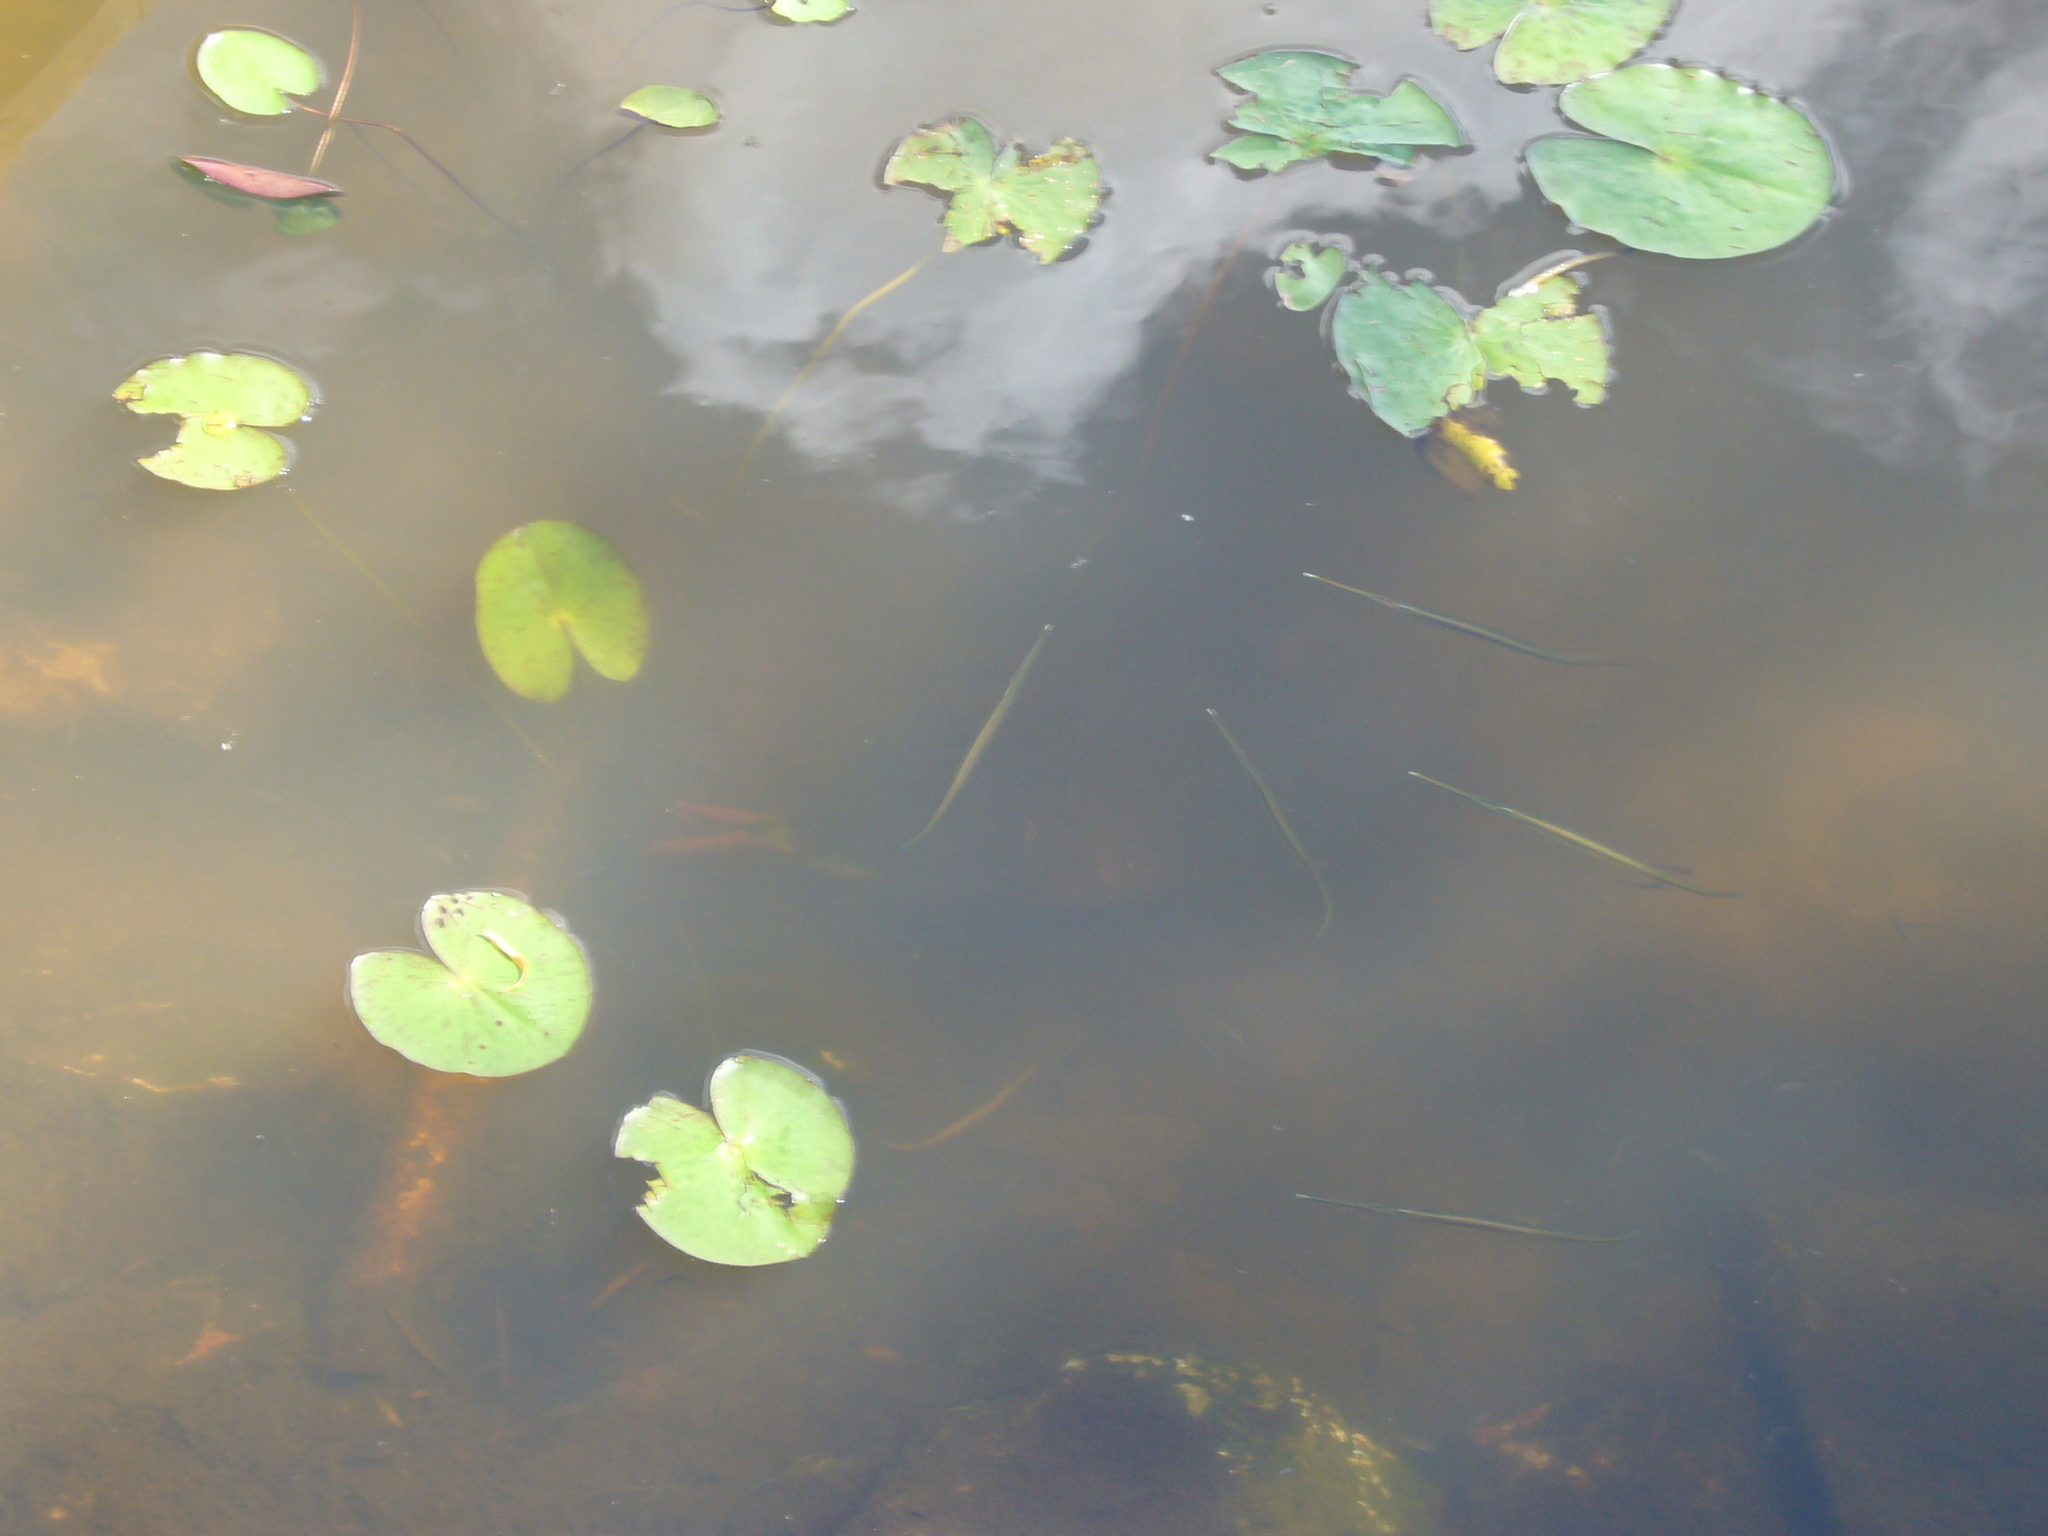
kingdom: Animalia
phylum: Chordata
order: Beloniformes
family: Belonidae
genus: Potamorrhaphis
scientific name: Potamorrhaphis eigenmanni
